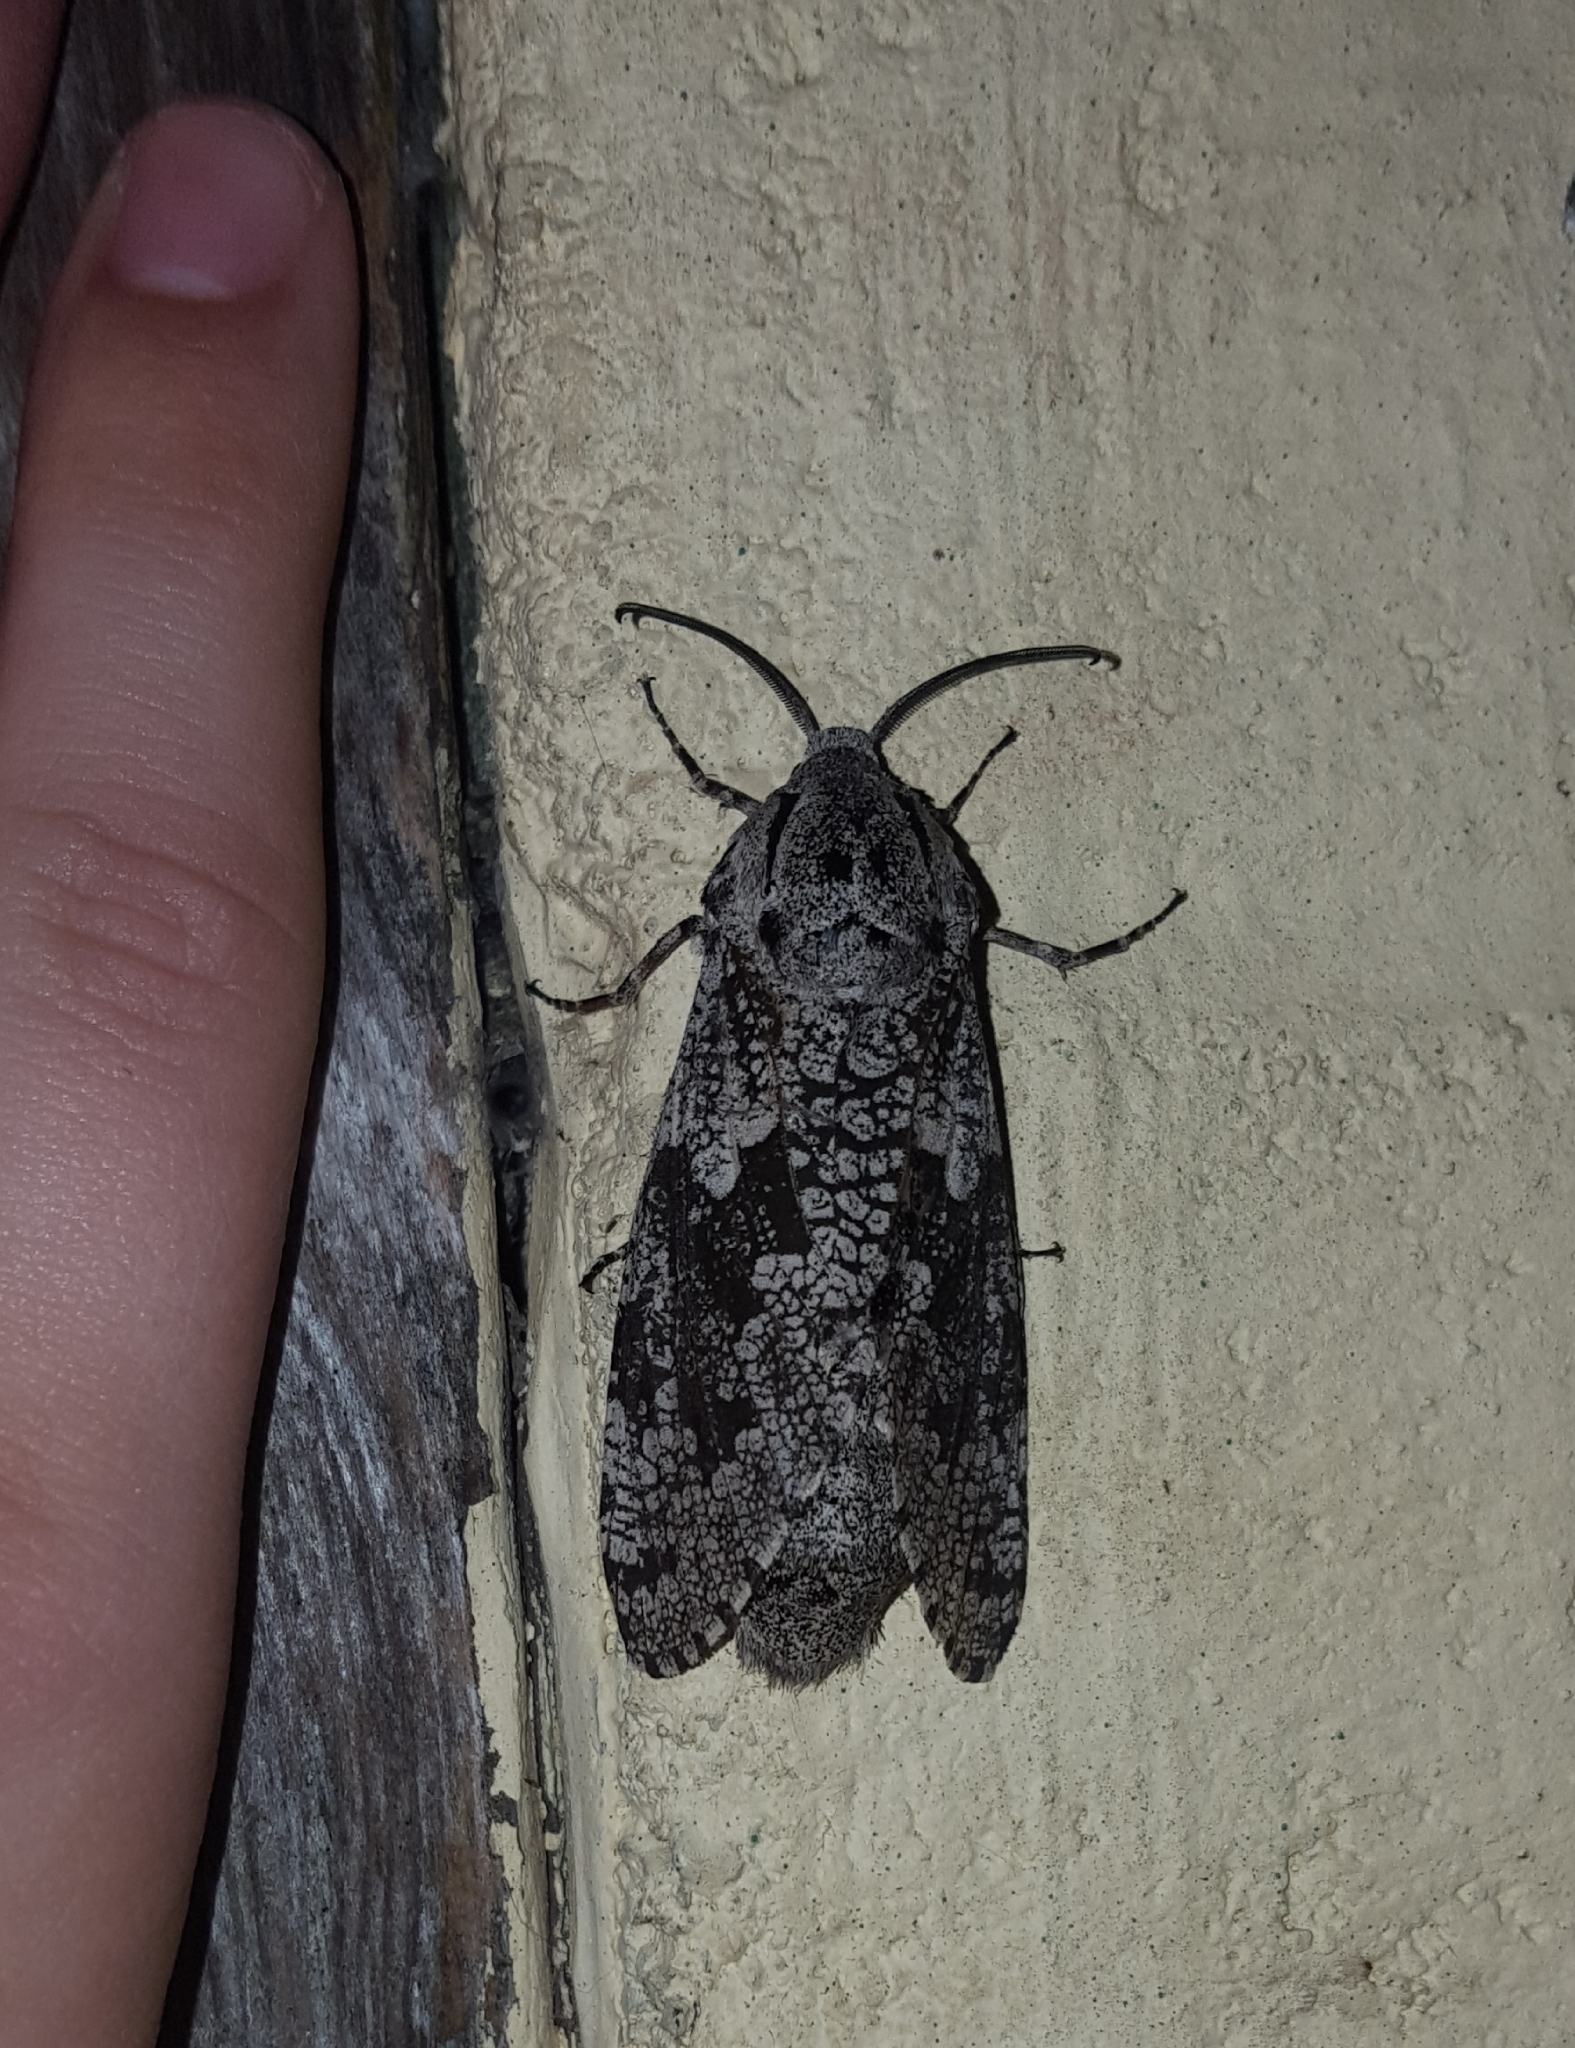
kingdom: Animalia
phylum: Arthropoda
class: Insecta
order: Lepidoptera
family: Cossidae
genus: Prionoxystus
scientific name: Prionoxystus robiniae
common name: Carpenterworm
